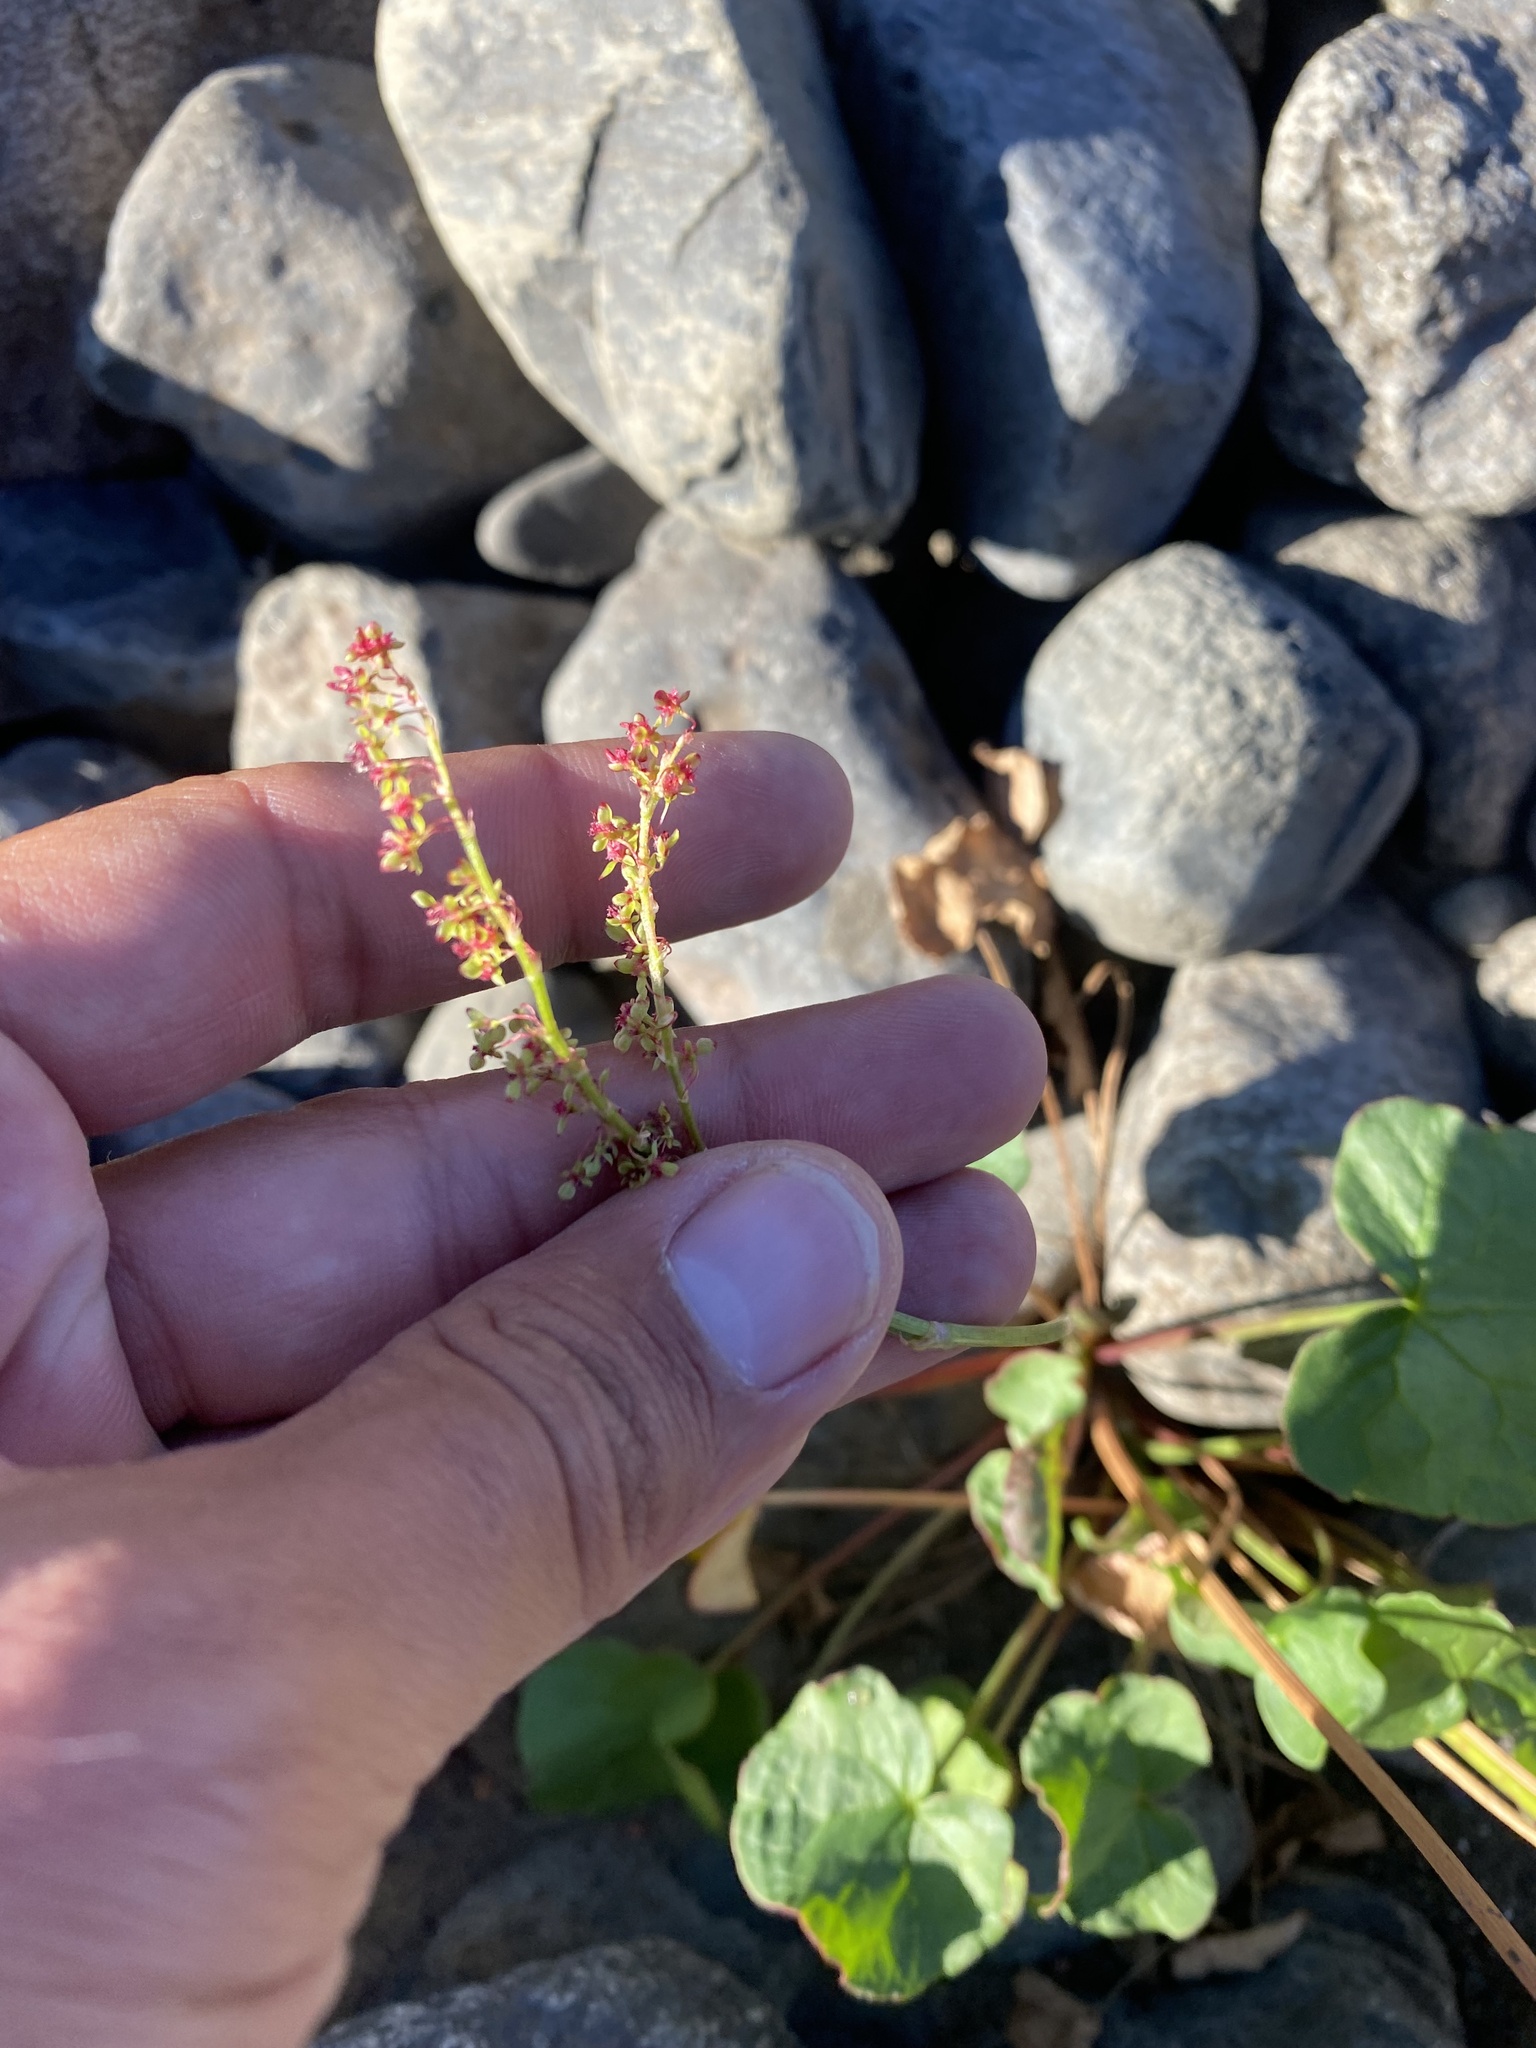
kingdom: Plantae
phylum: Tracheophyta
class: Magnoliopsida
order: Caryophyllales
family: Polygonaceae
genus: Oxyria
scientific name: Oxyria digyna
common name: Alpine mountain-sorrel
